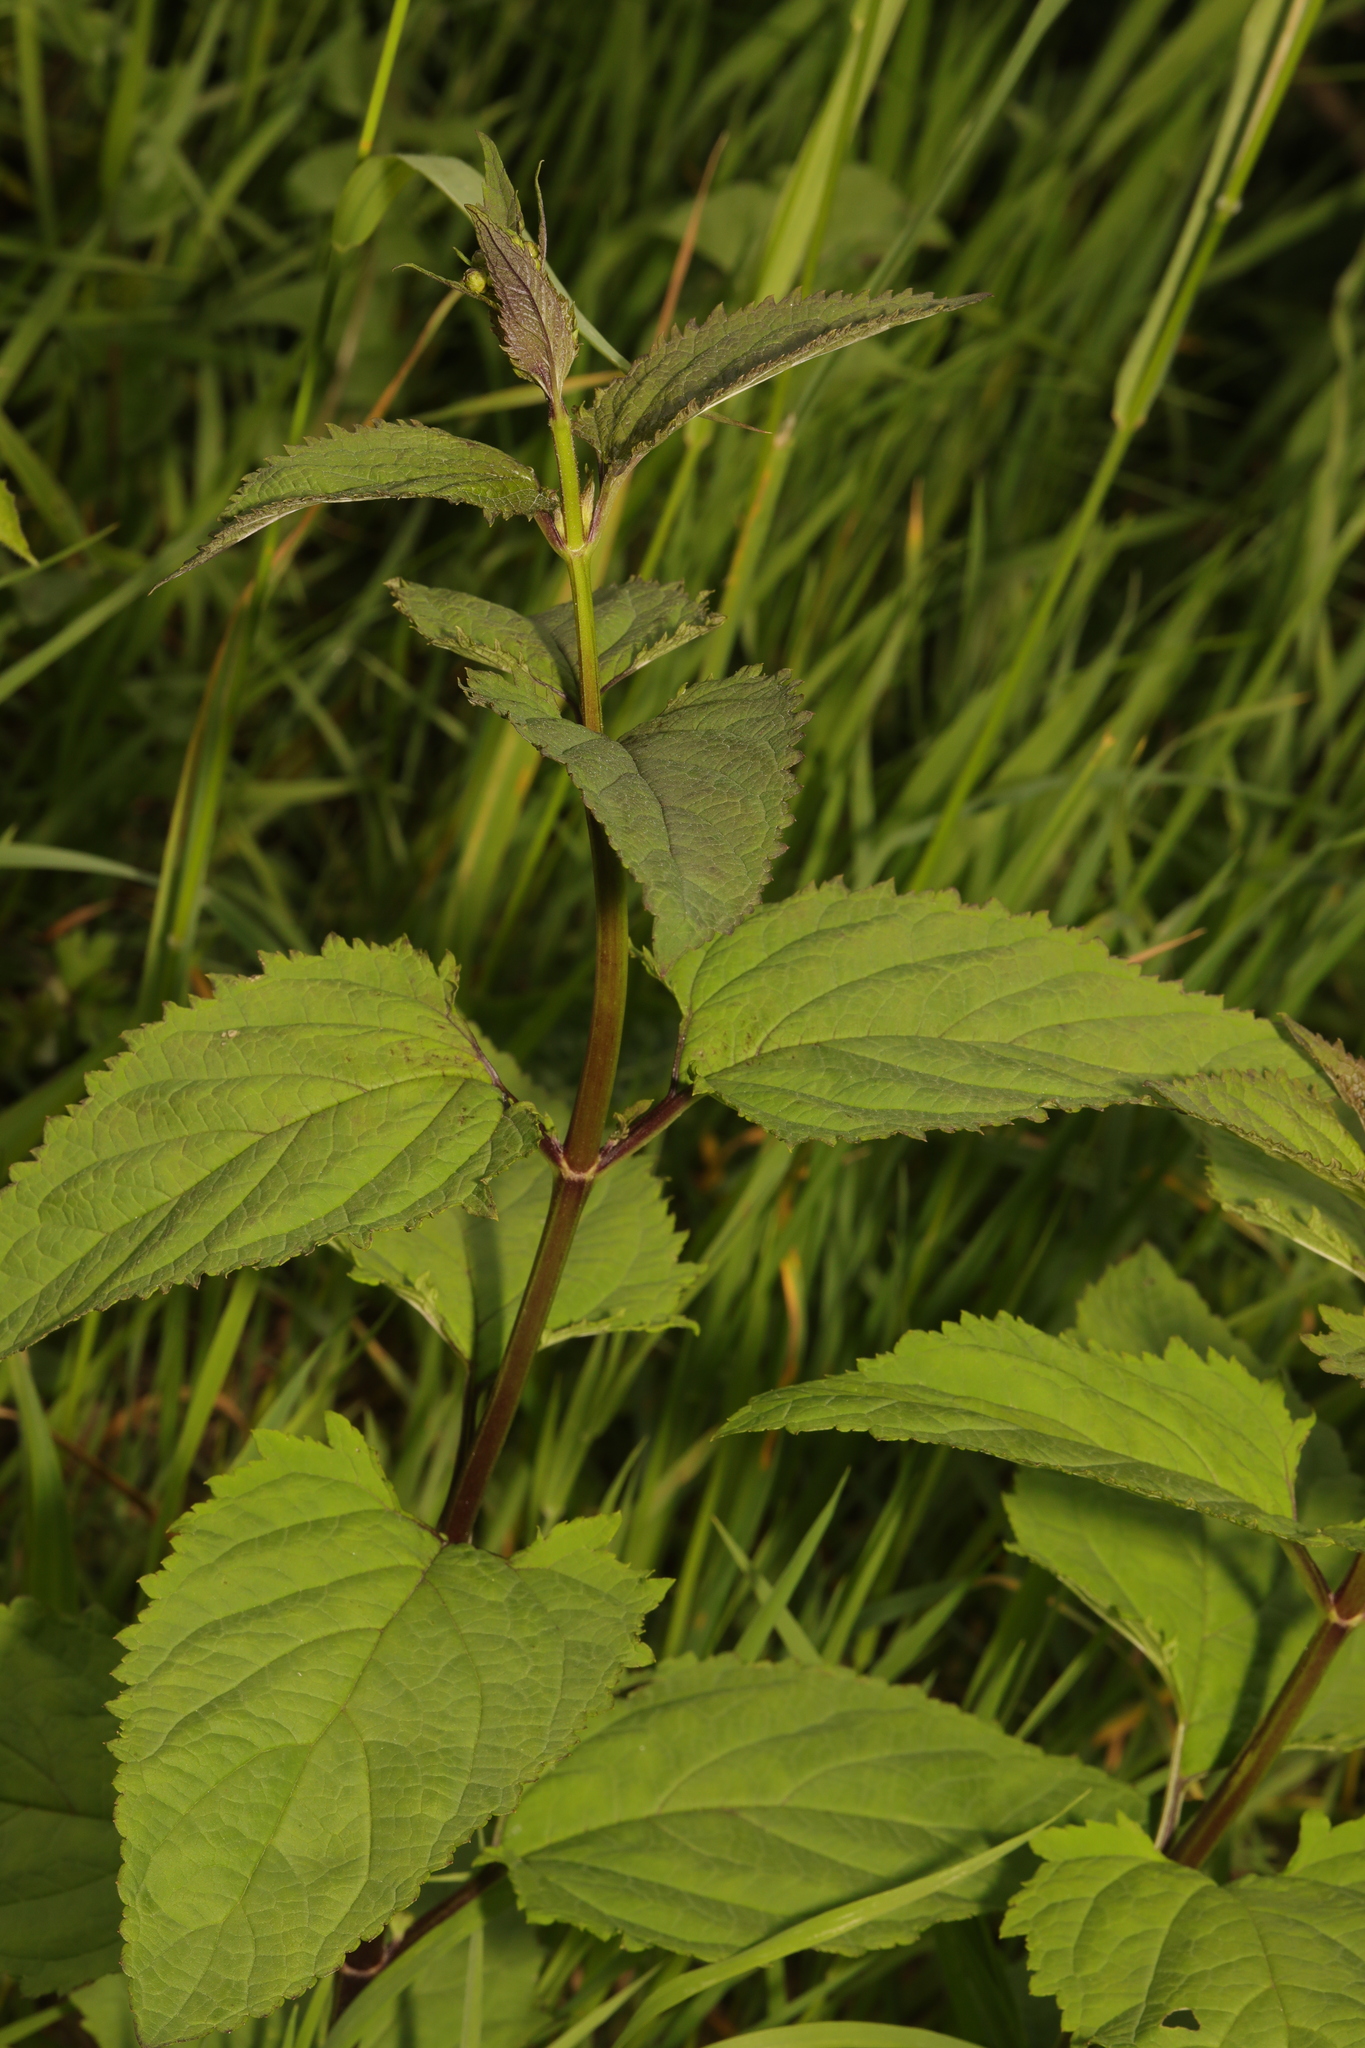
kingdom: Plantae
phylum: Tracheophyta
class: Magnoliopsida
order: Lamiales
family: Scrophulariaceae
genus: Scrophularia
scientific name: Scrophularia nodosa
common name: Common figwort
